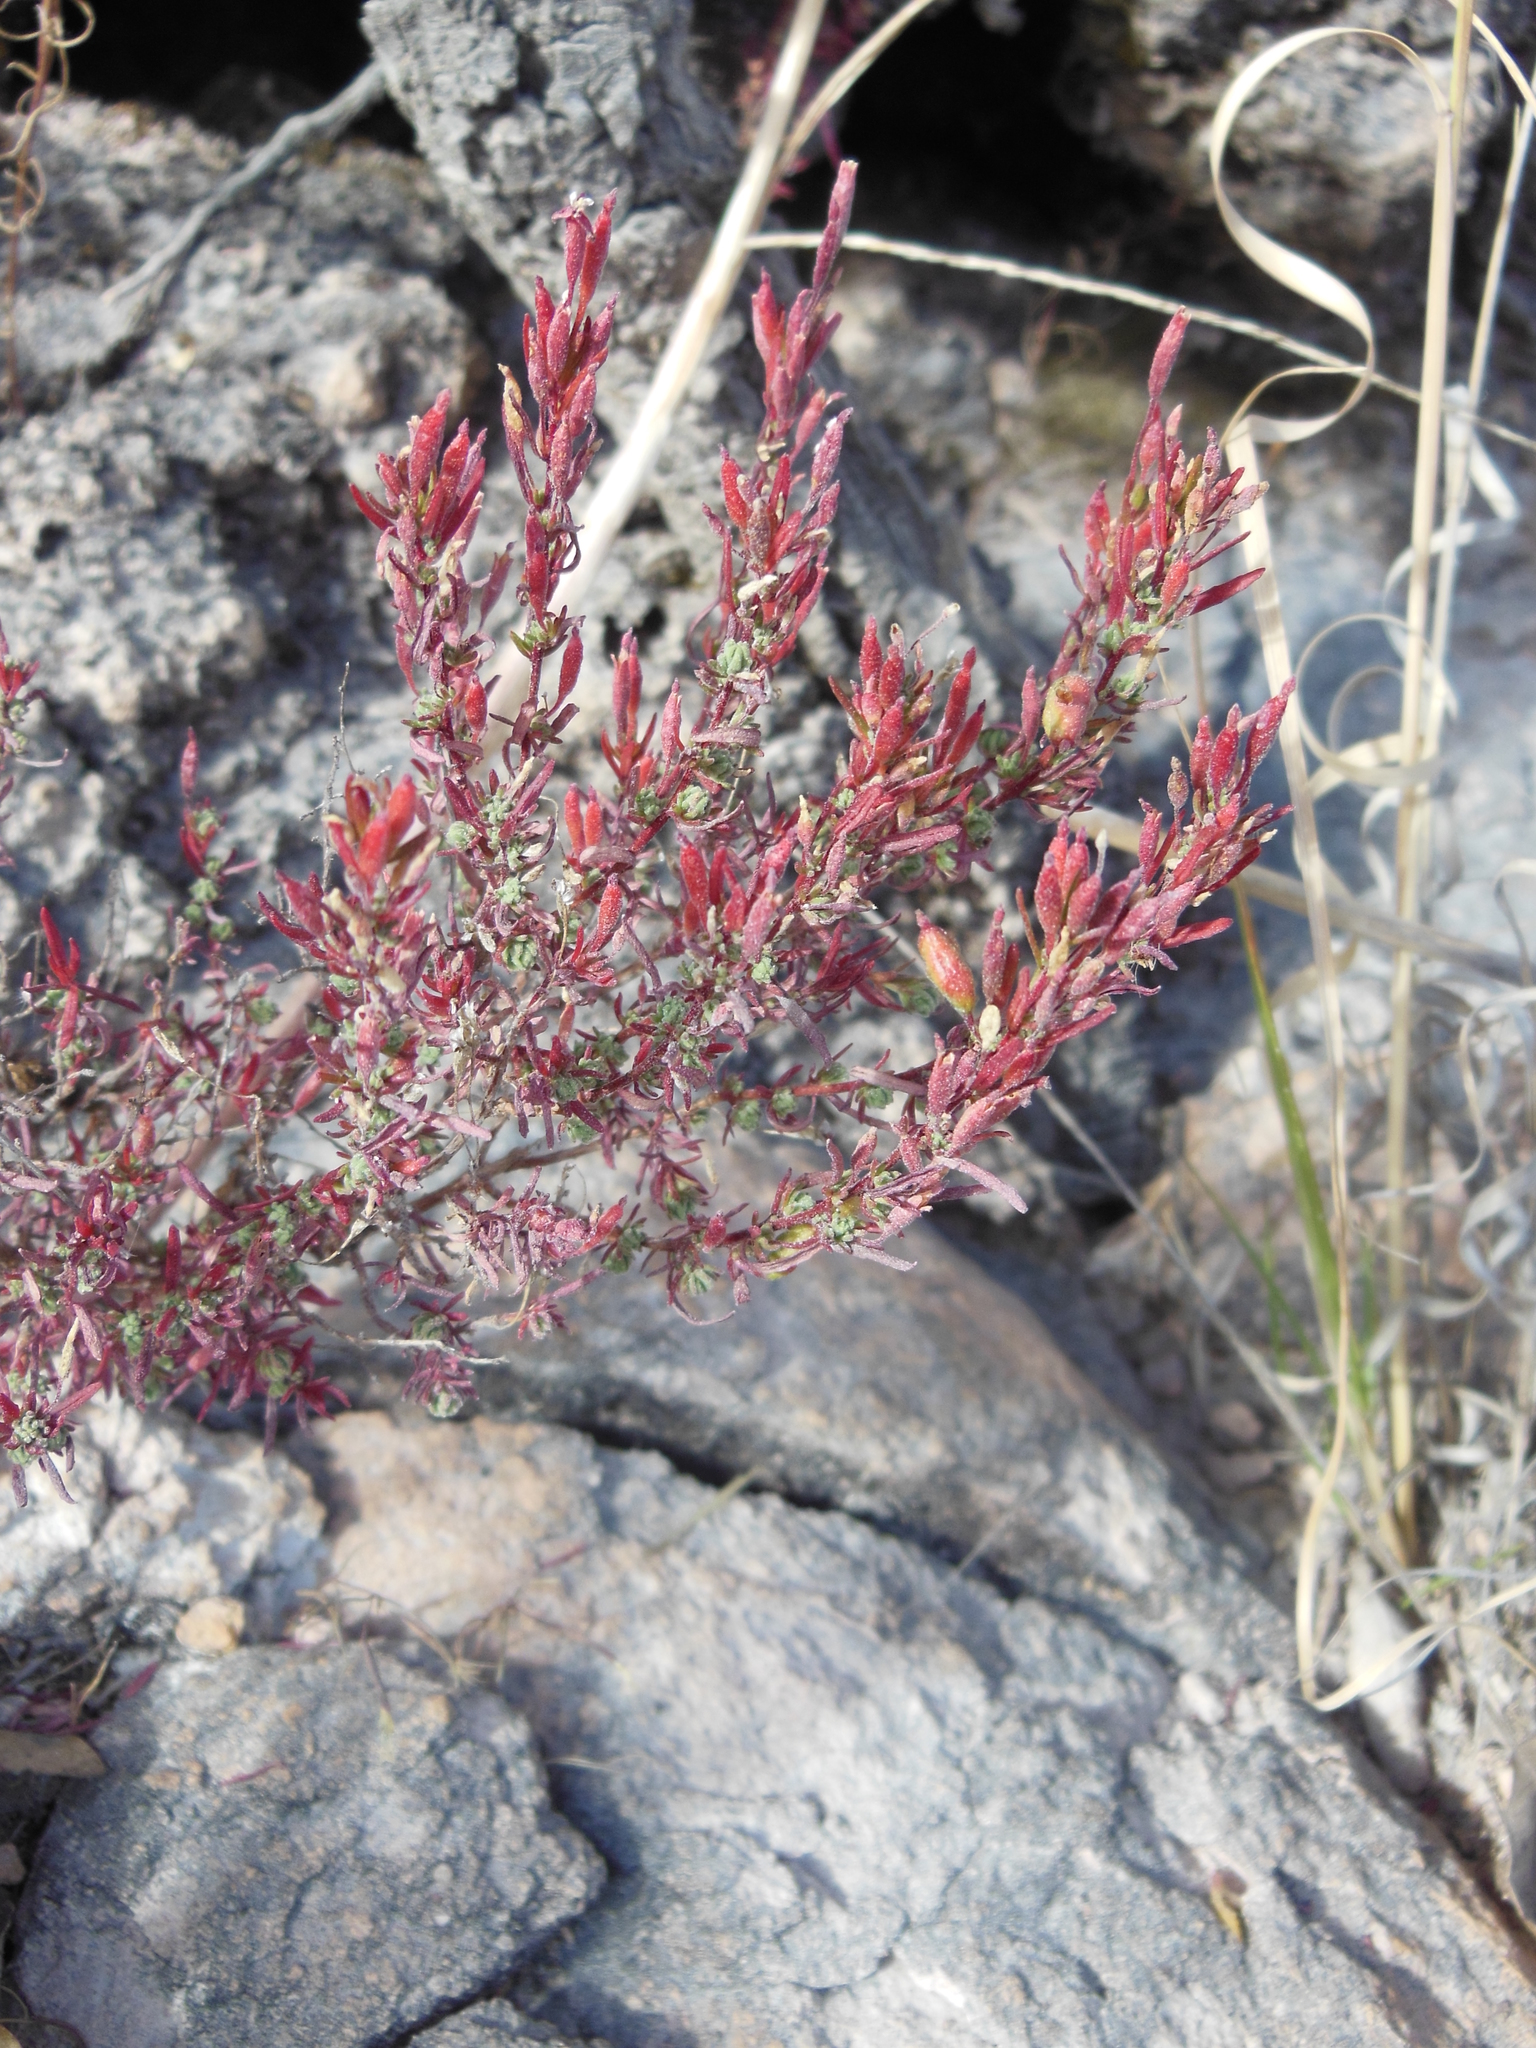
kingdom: Plantae
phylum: Tracheophyta
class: Magnoliopsida
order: Myrtales
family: Onagraceae
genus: Megacorax
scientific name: Megacorax gracielanus
